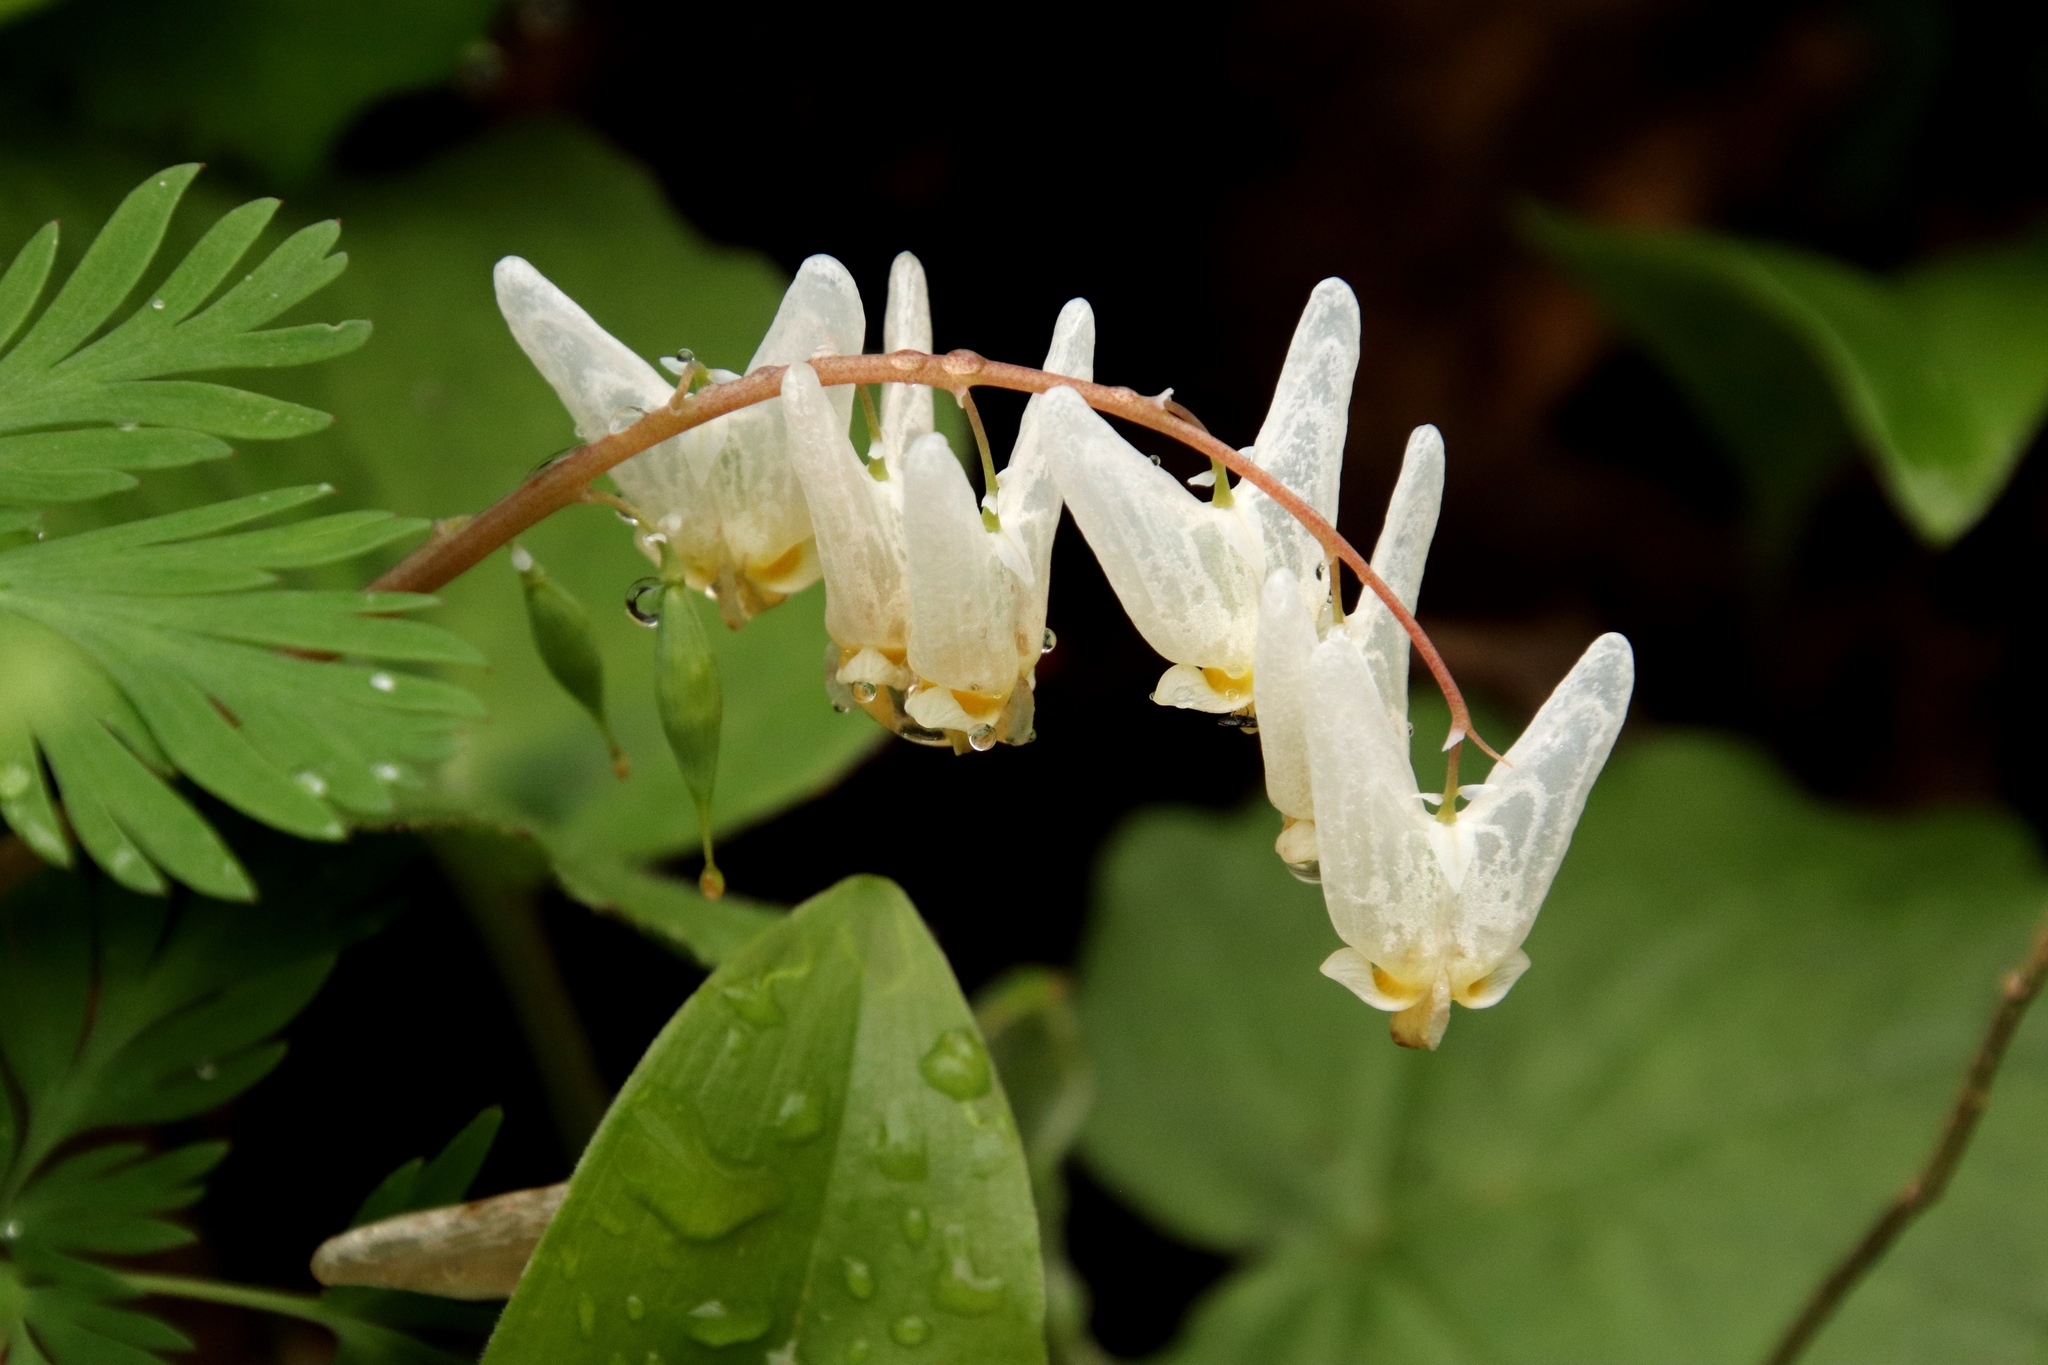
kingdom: Plantae
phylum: Tracheophyta
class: Magnoliopsida
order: Ranunculales
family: Papaveraceae
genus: Dicentra
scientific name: Dicentra cucullaria
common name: Dutchman's breeches
